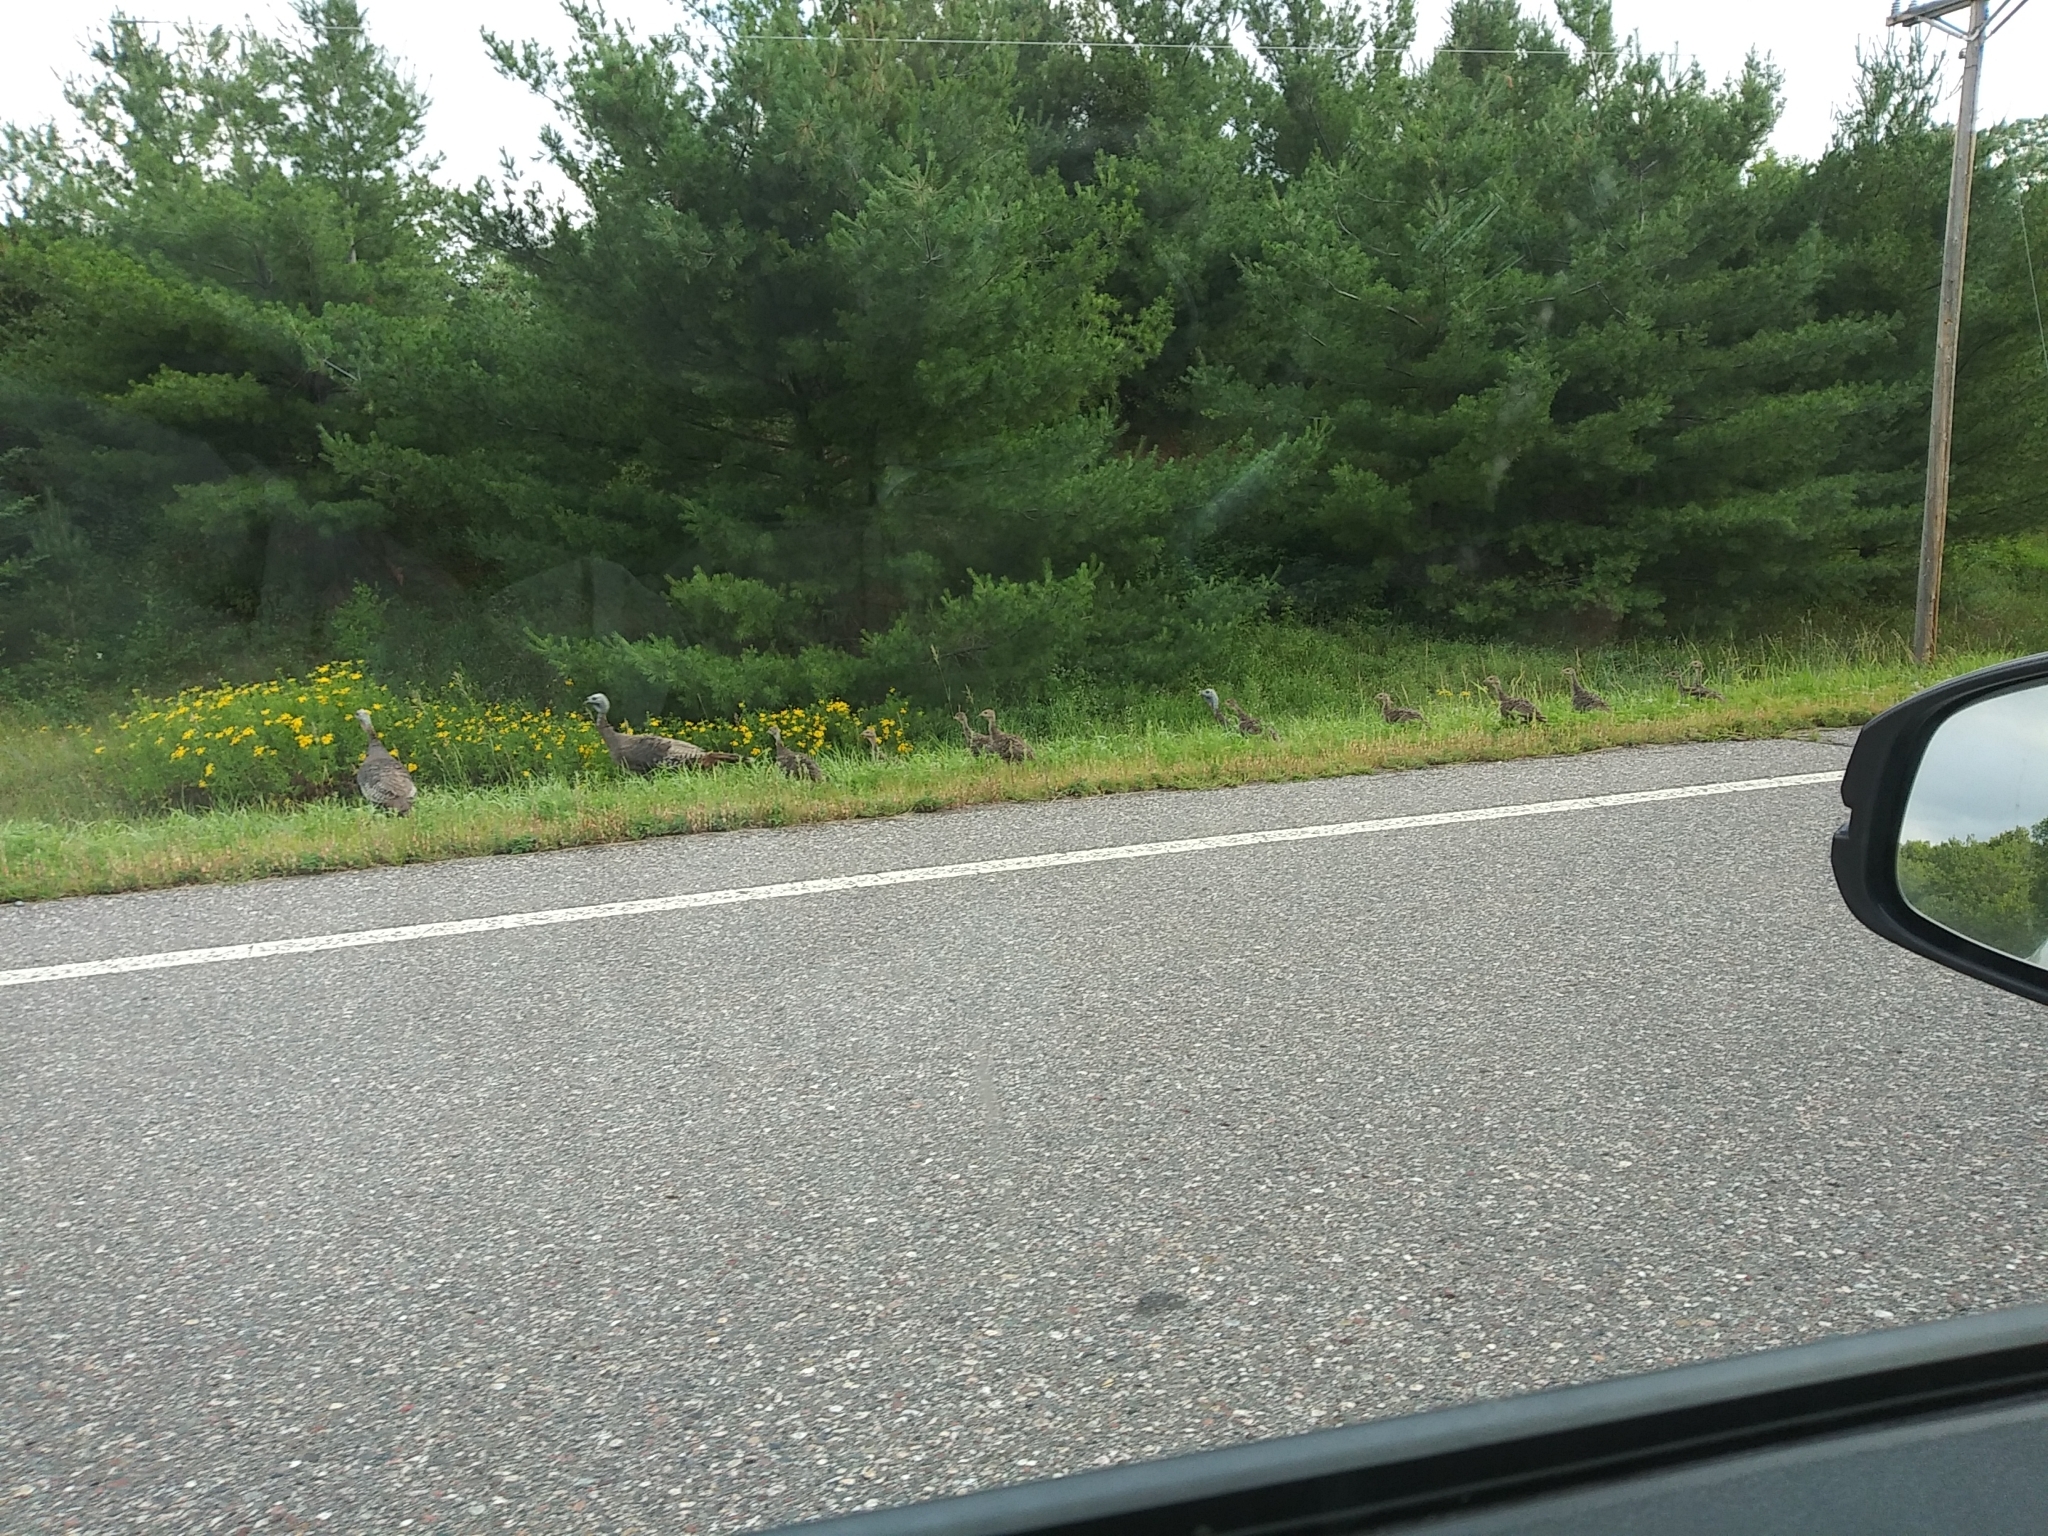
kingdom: Animalia
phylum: Chordata
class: Aves
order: Galliformes
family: Phasianidae
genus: Meleagris
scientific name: Meleagris gallopavo
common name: Wild turkey
